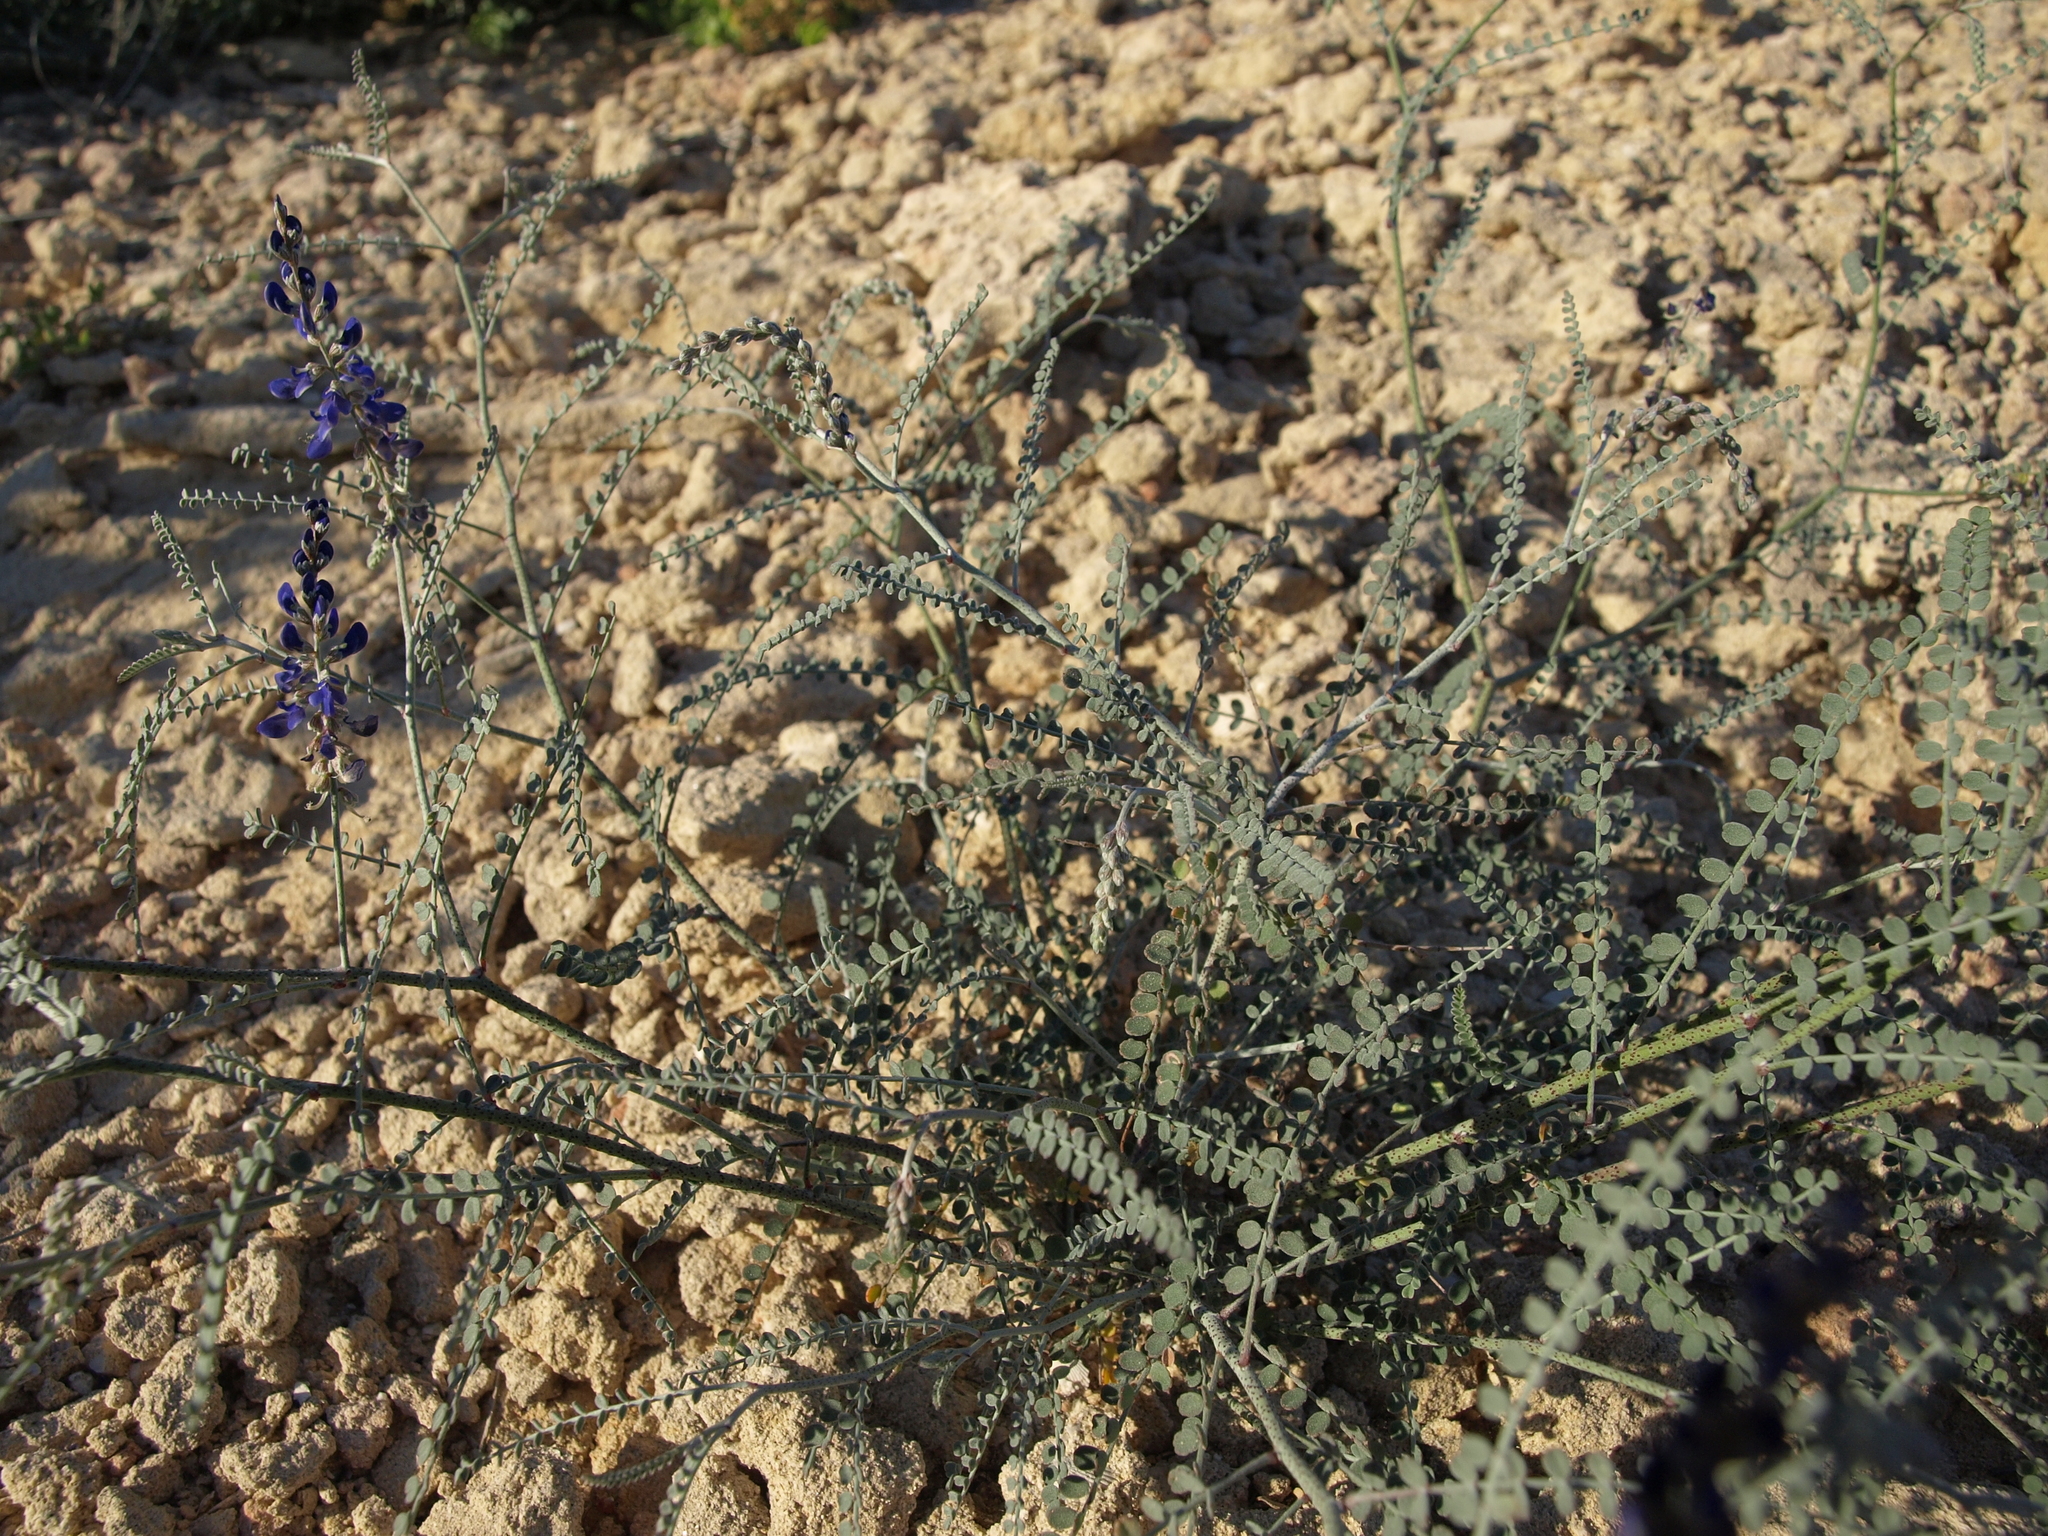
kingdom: Plantae
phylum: Tracheophyta
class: Magnoliopsida
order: Fabales
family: Fabaceae
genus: Marina
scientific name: Marina parryi
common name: Parry's marina
